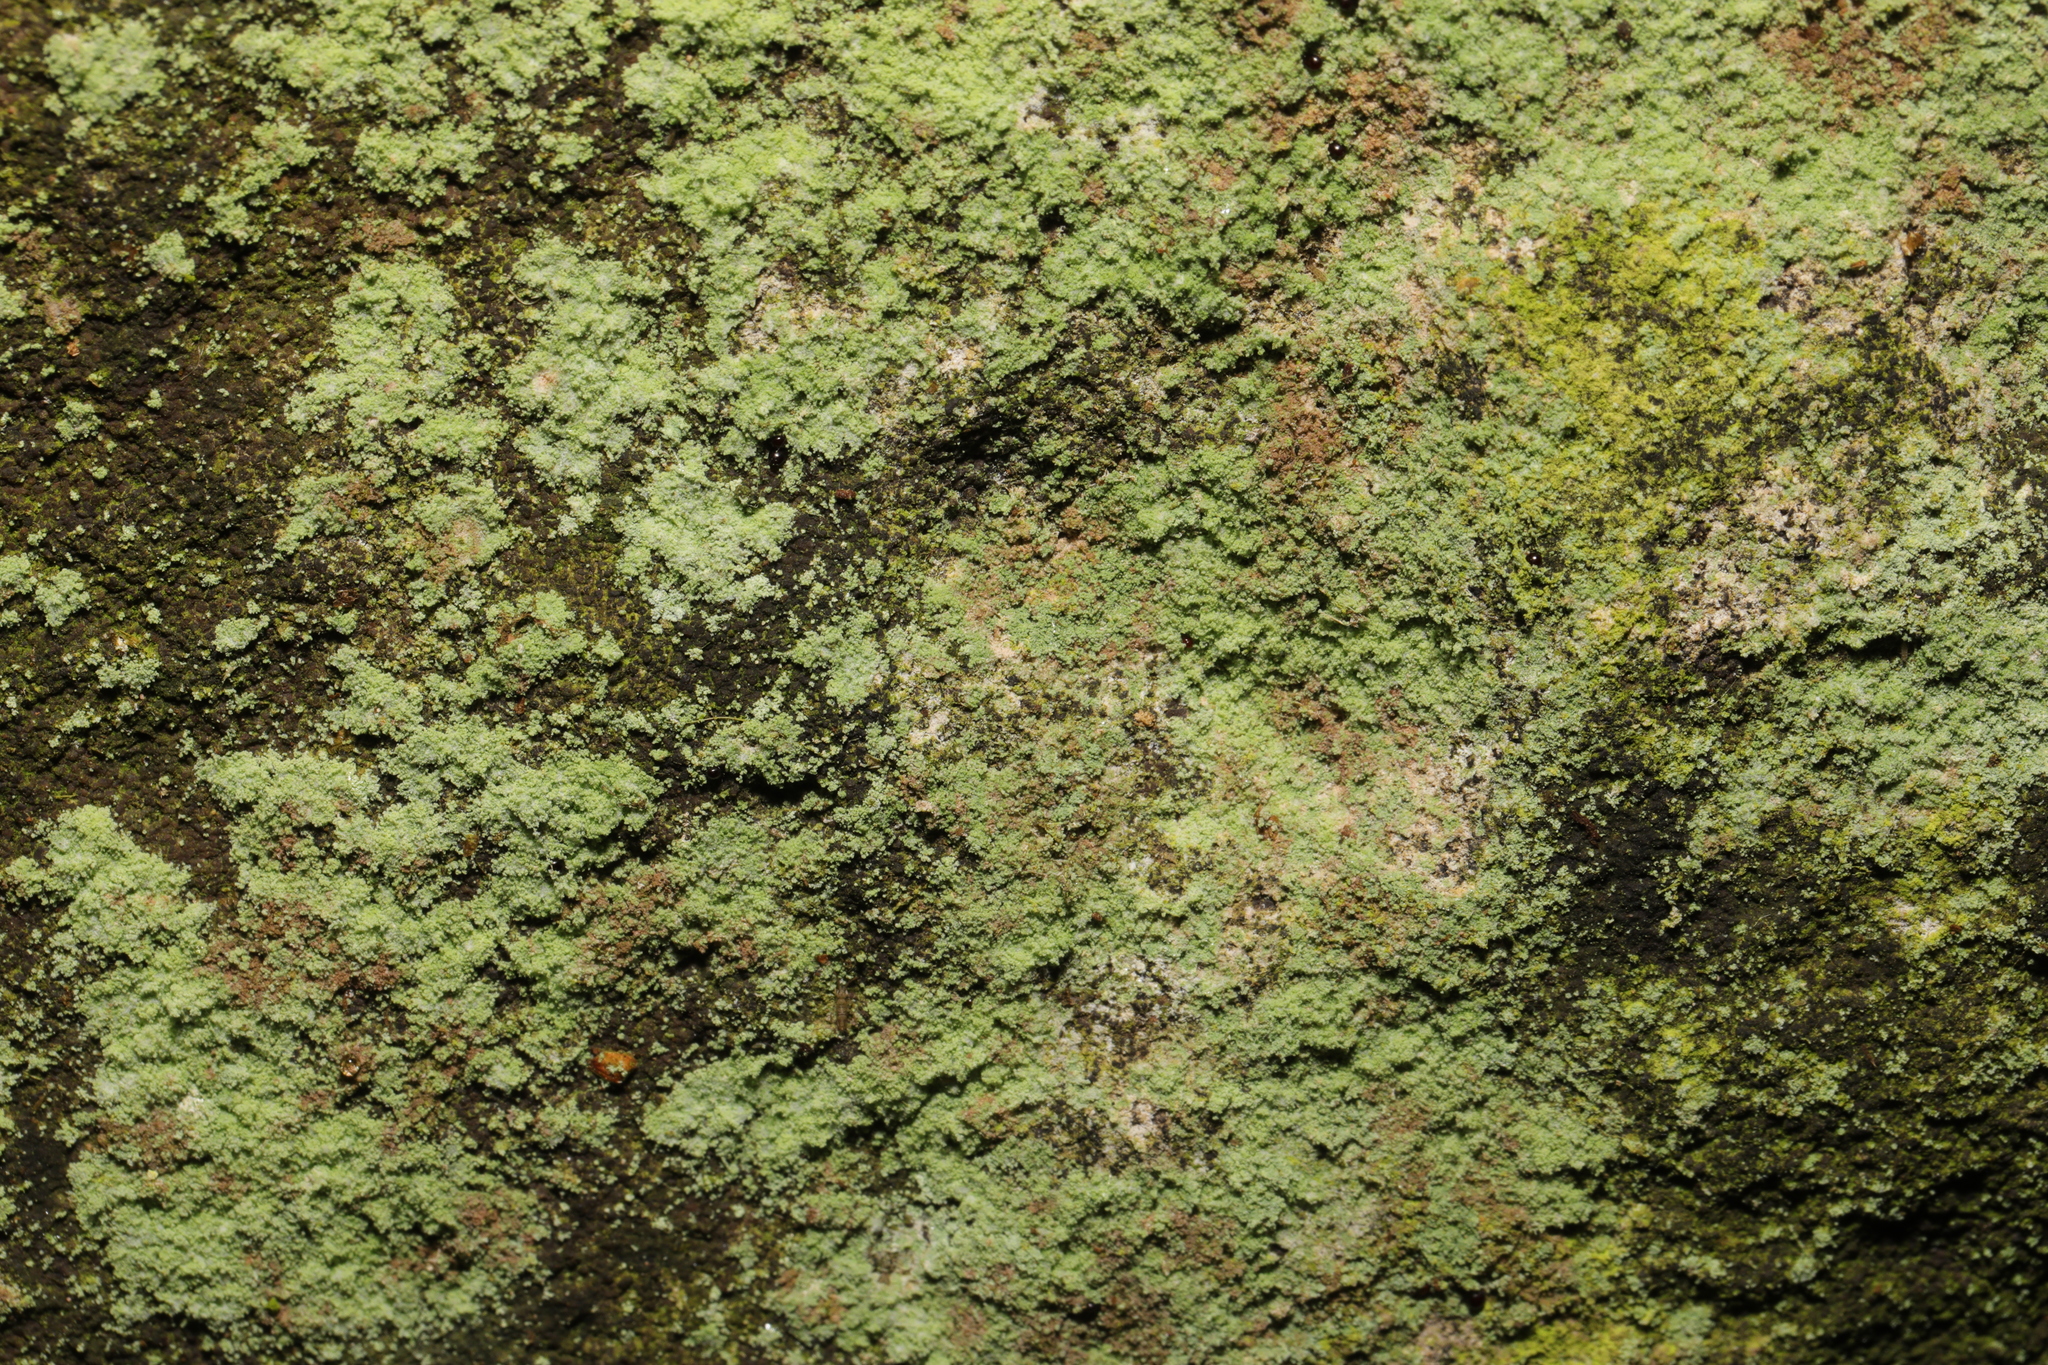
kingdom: Fungi
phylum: Ascomycota
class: Lecanoromycetes
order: Lecanorales
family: Stereocaulaceae
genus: Lepraria
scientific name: Lepraria
